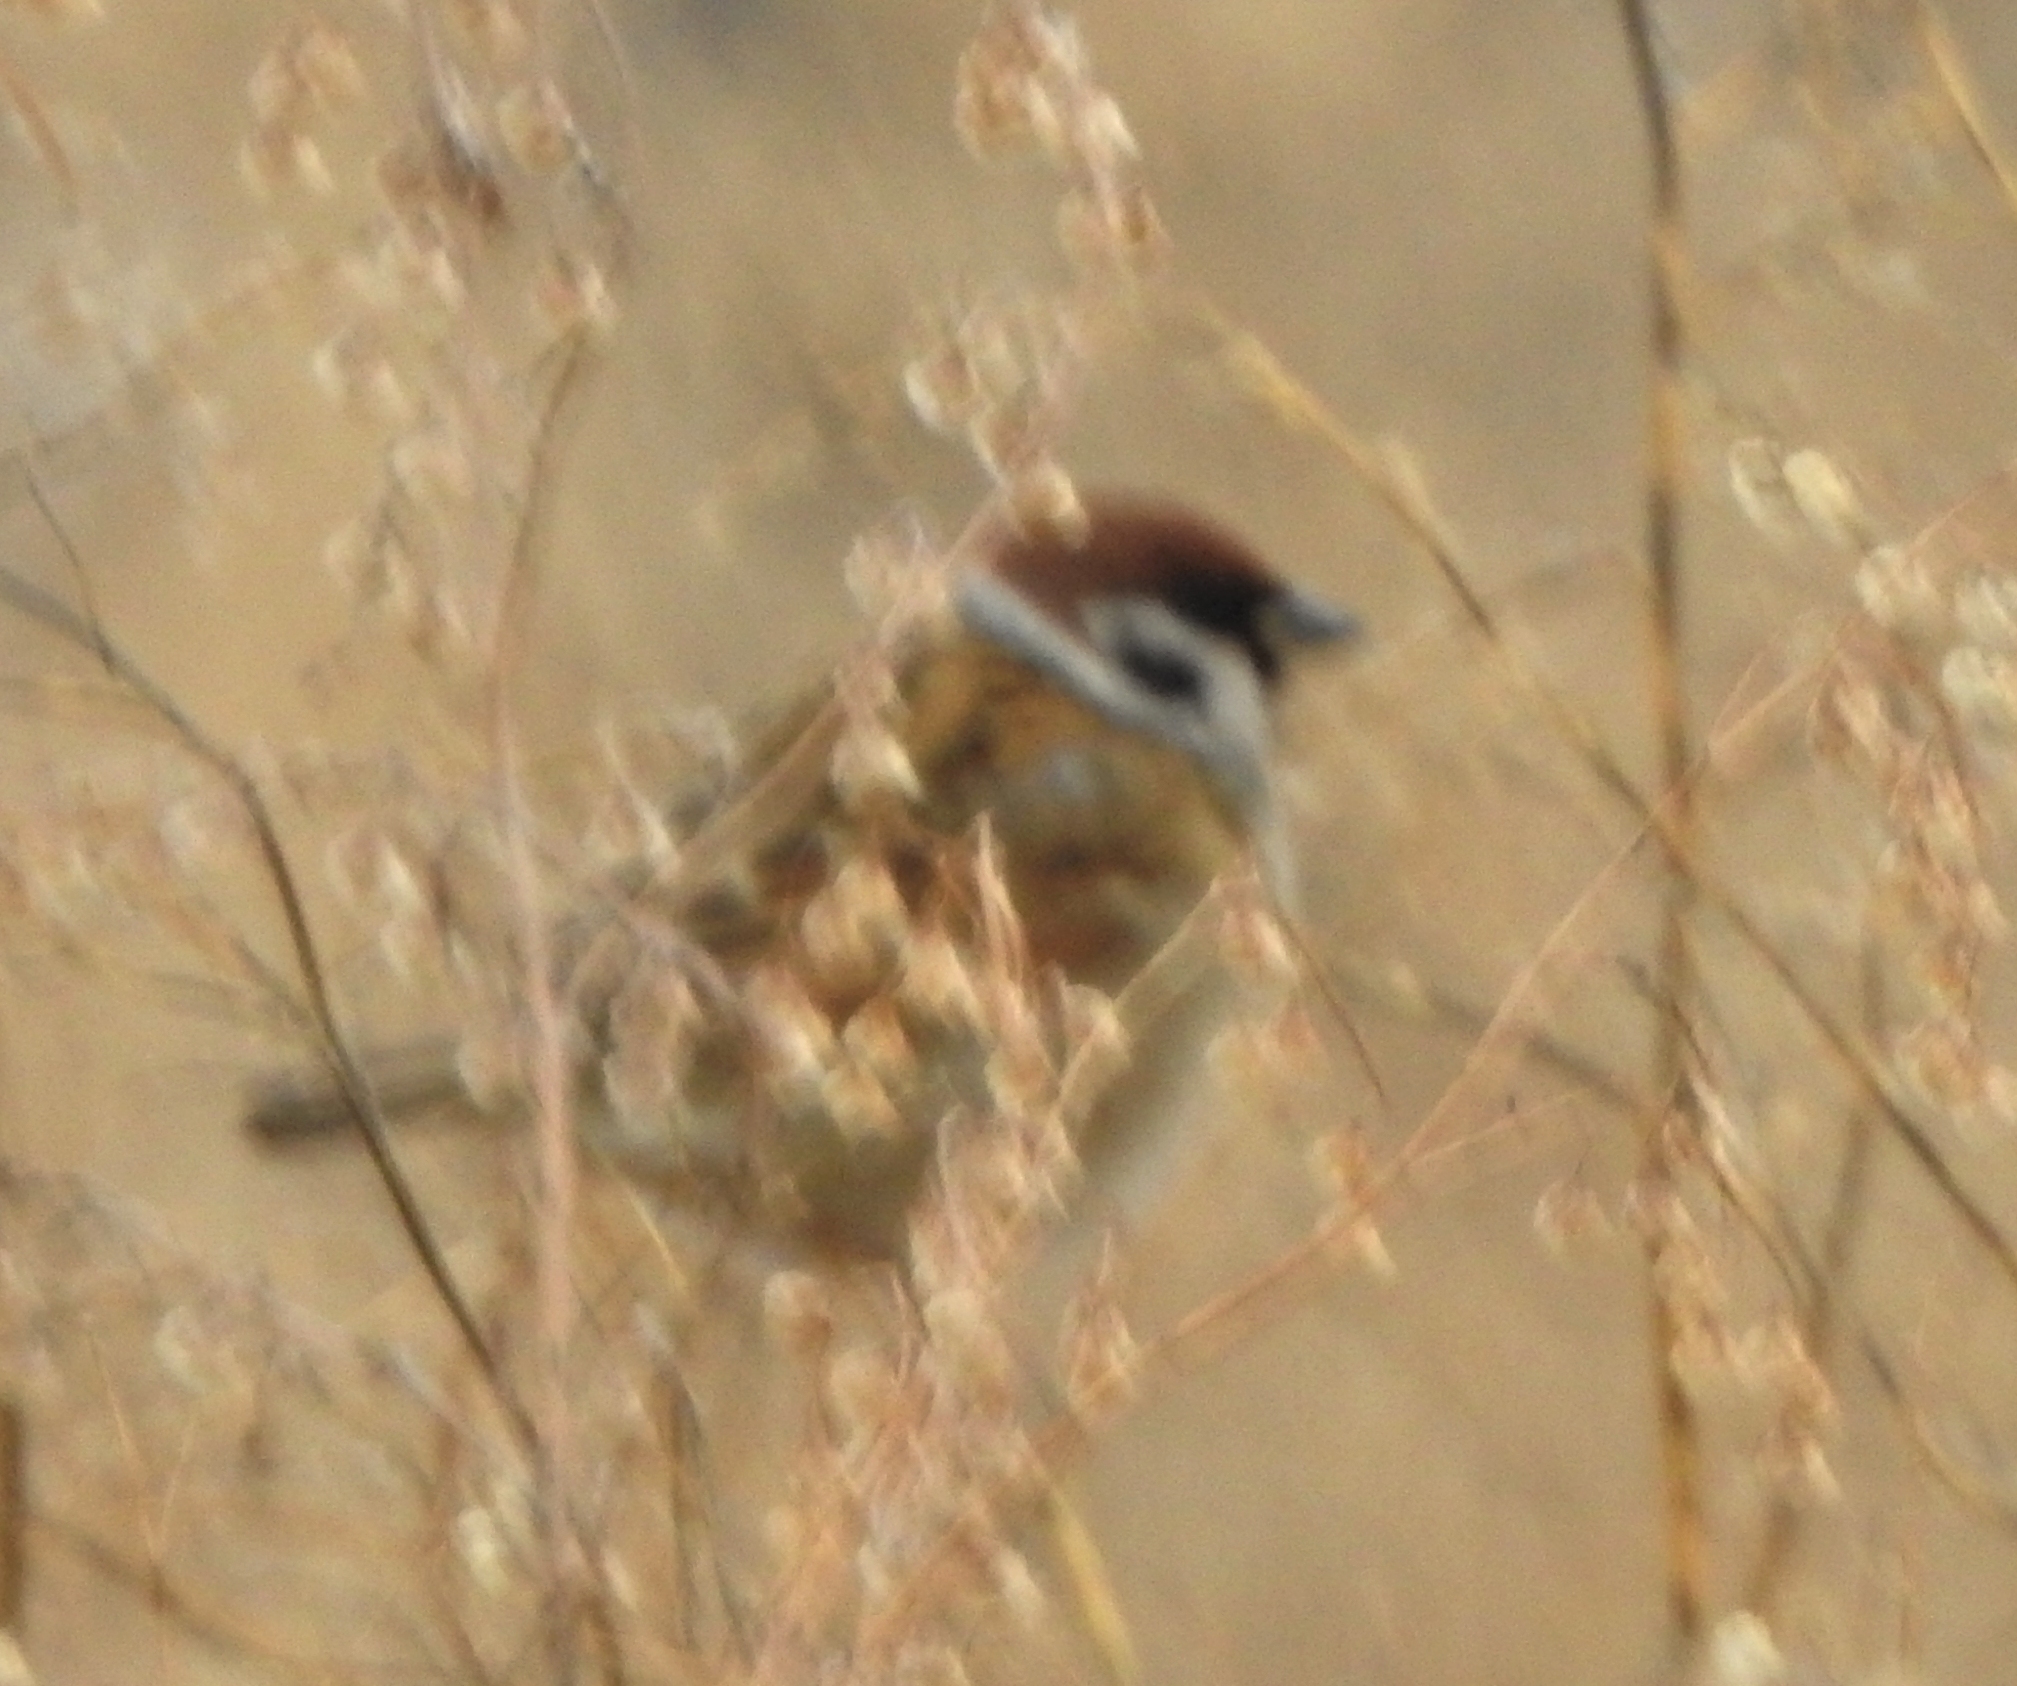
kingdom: Animalia
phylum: Chordata
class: Aves
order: Passeriformes
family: Passeridae
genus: Passer
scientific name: Passer montanus
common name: Eurasian tree sparrow
